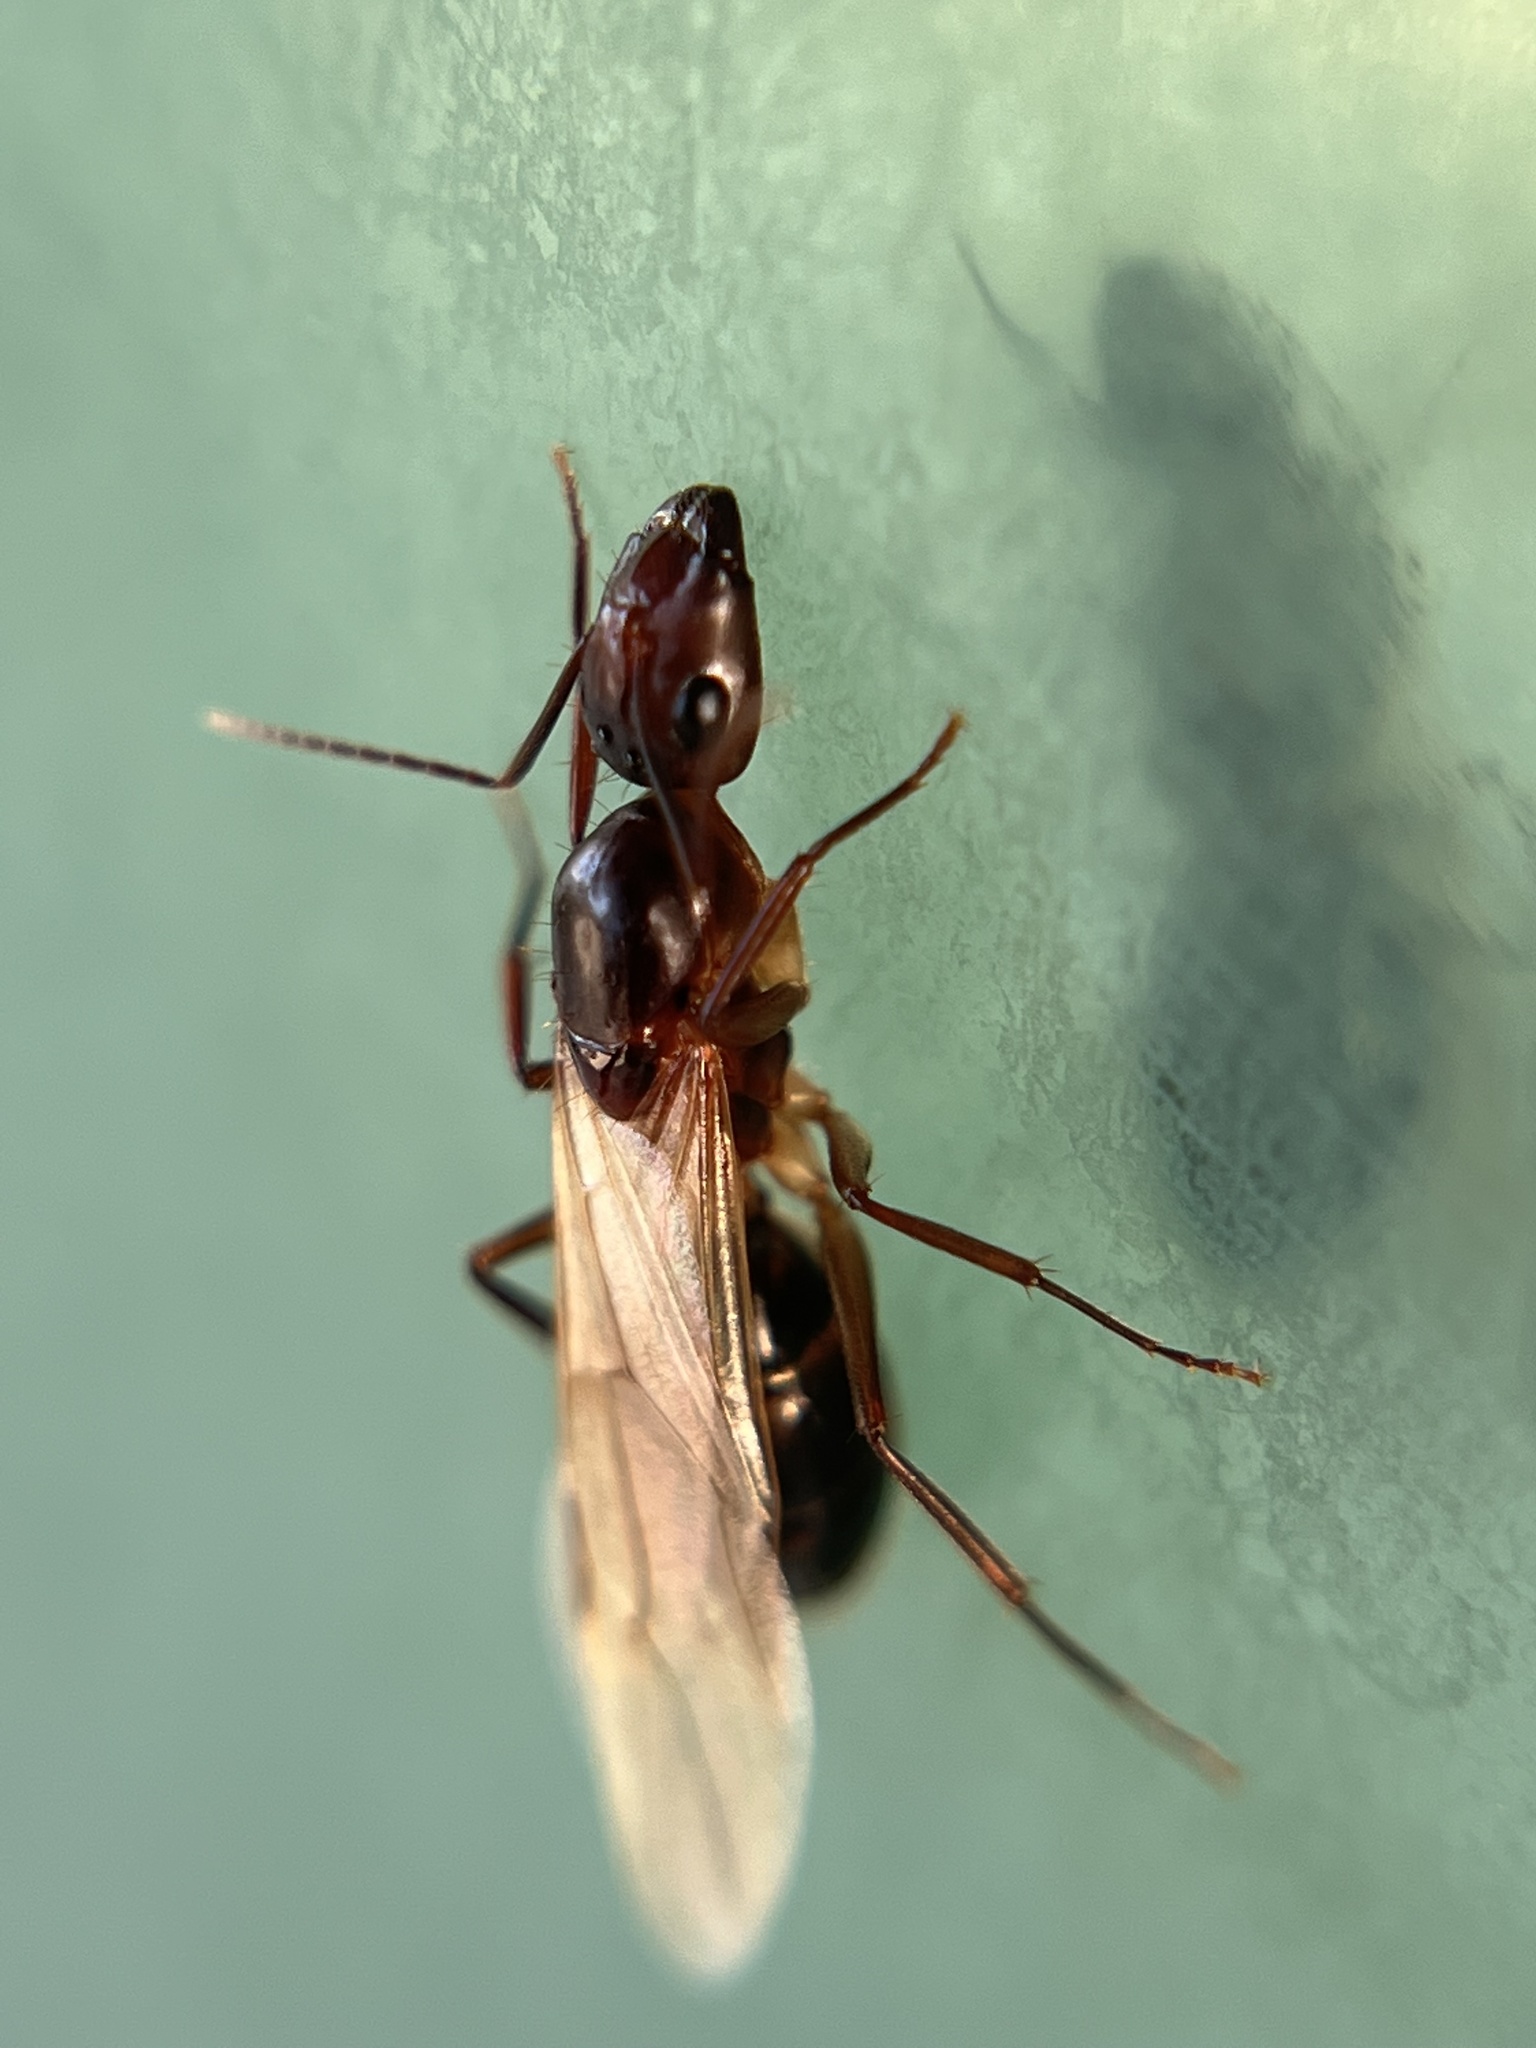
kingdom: Animalia
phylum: Arthropoda
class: Insecta
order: Hymenoptera
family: Formicidae
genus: Camponotus
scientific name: Camponotus inaequalis
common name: Ant
